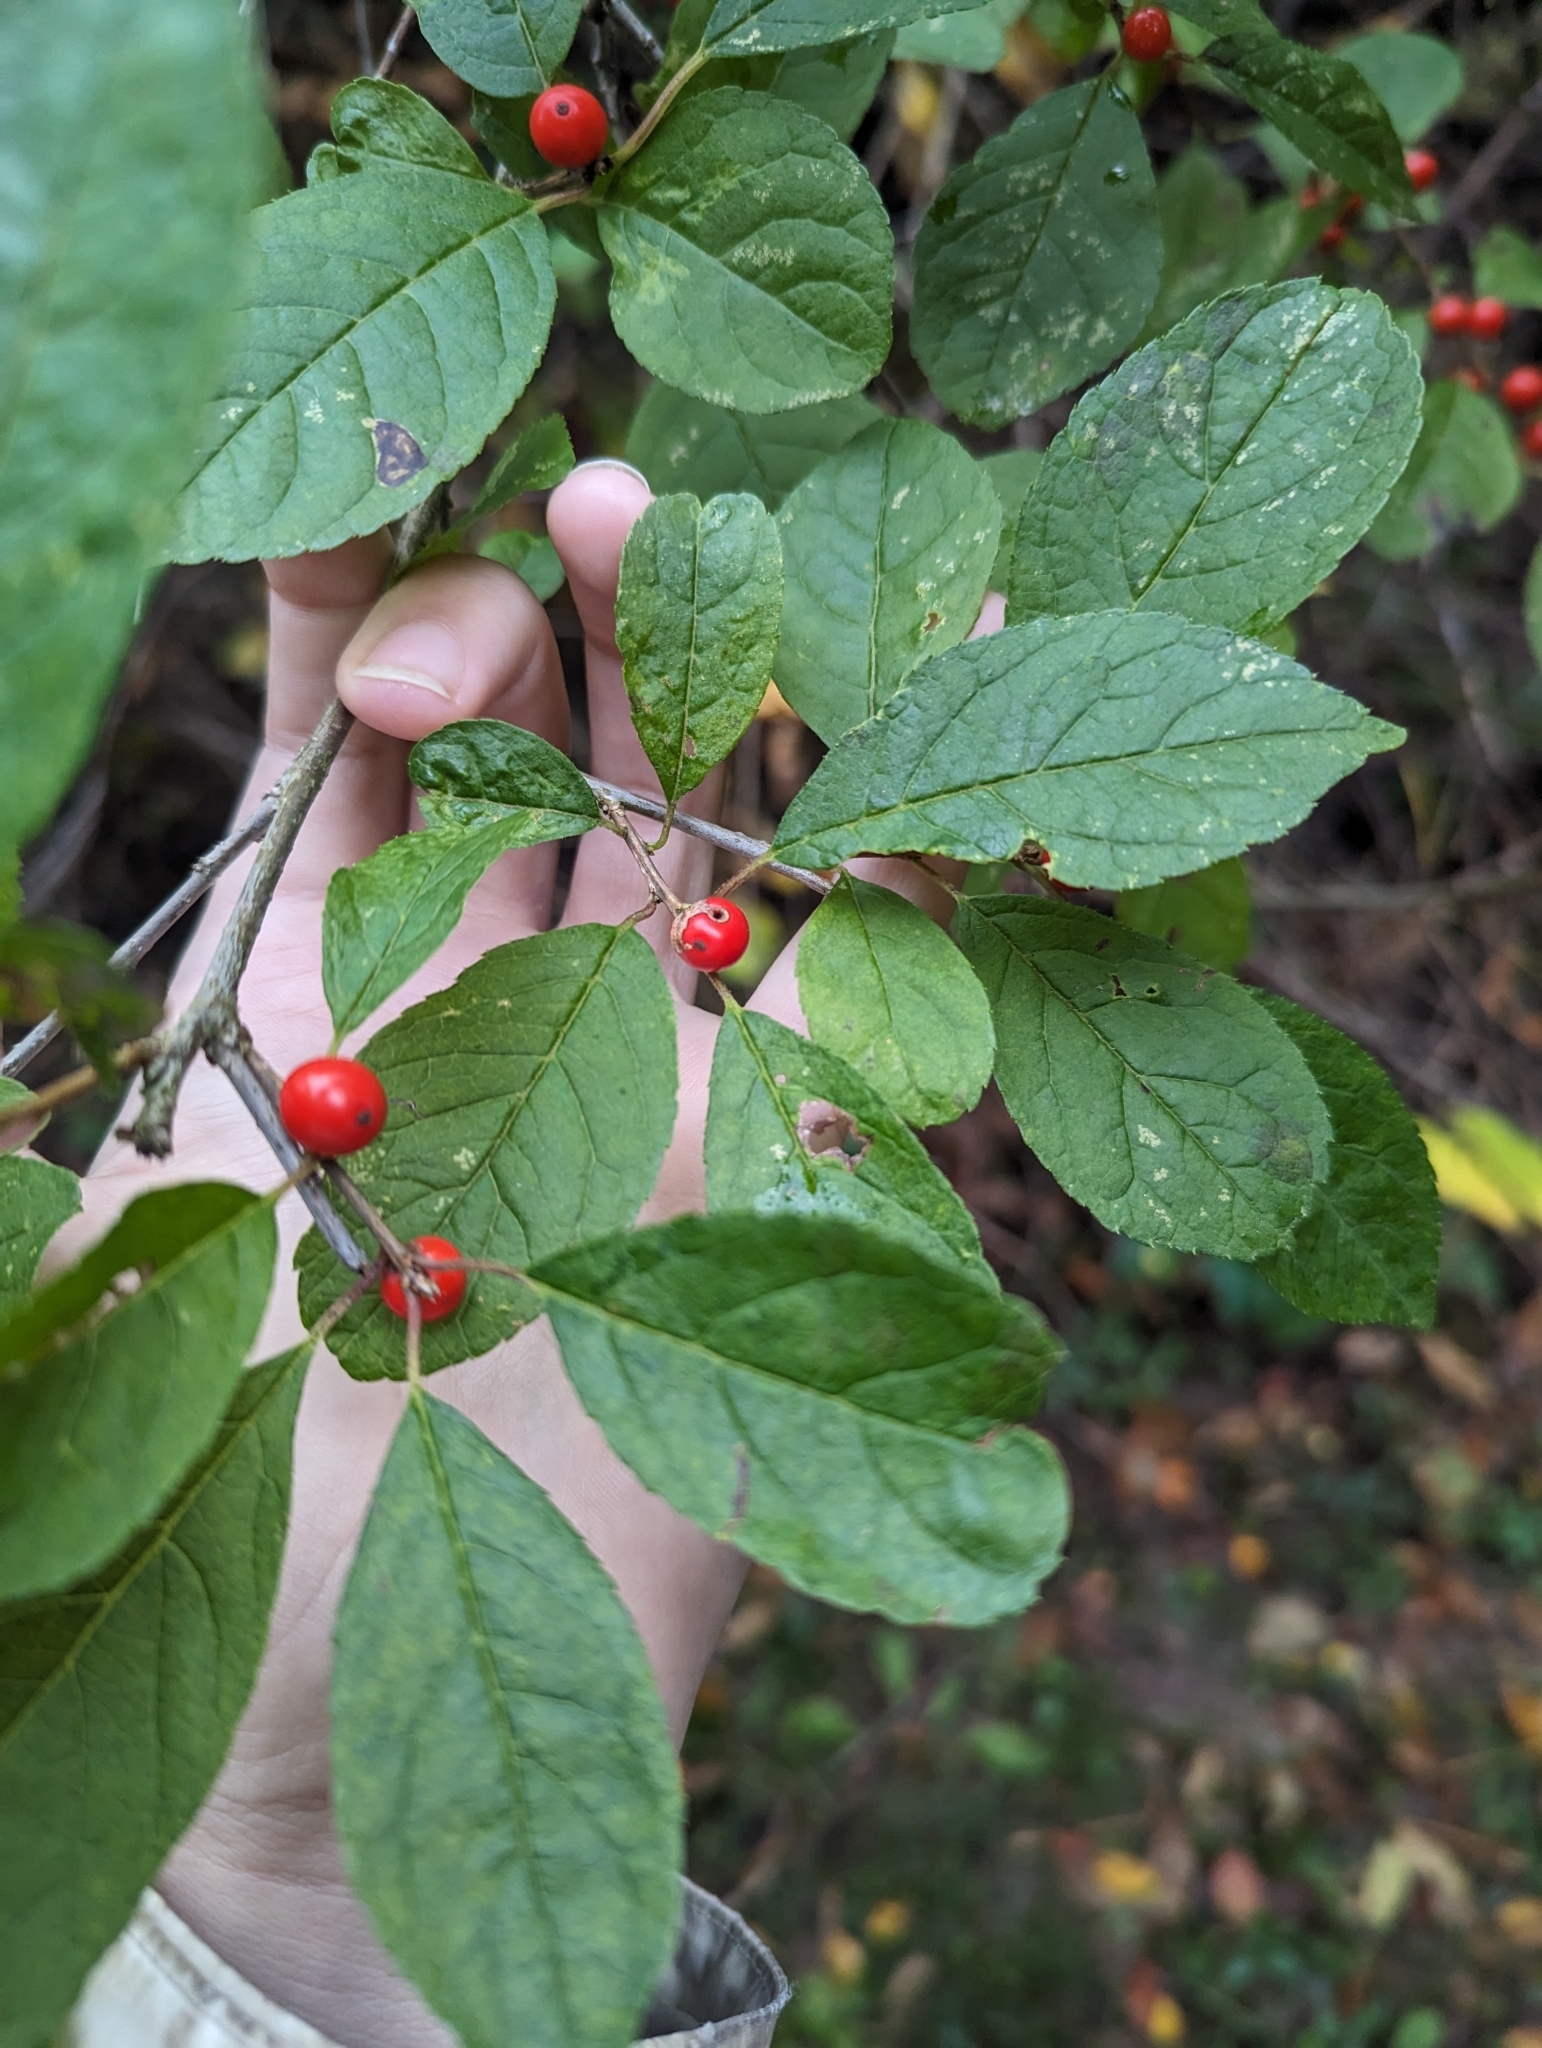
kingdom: Plantae
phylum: Tracheophyta
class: Magnoliopsida
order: Aquifoliales
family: Aquifoliaceae
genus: Ilex
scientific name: Ilex verticillata
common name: Virginia winterberry
